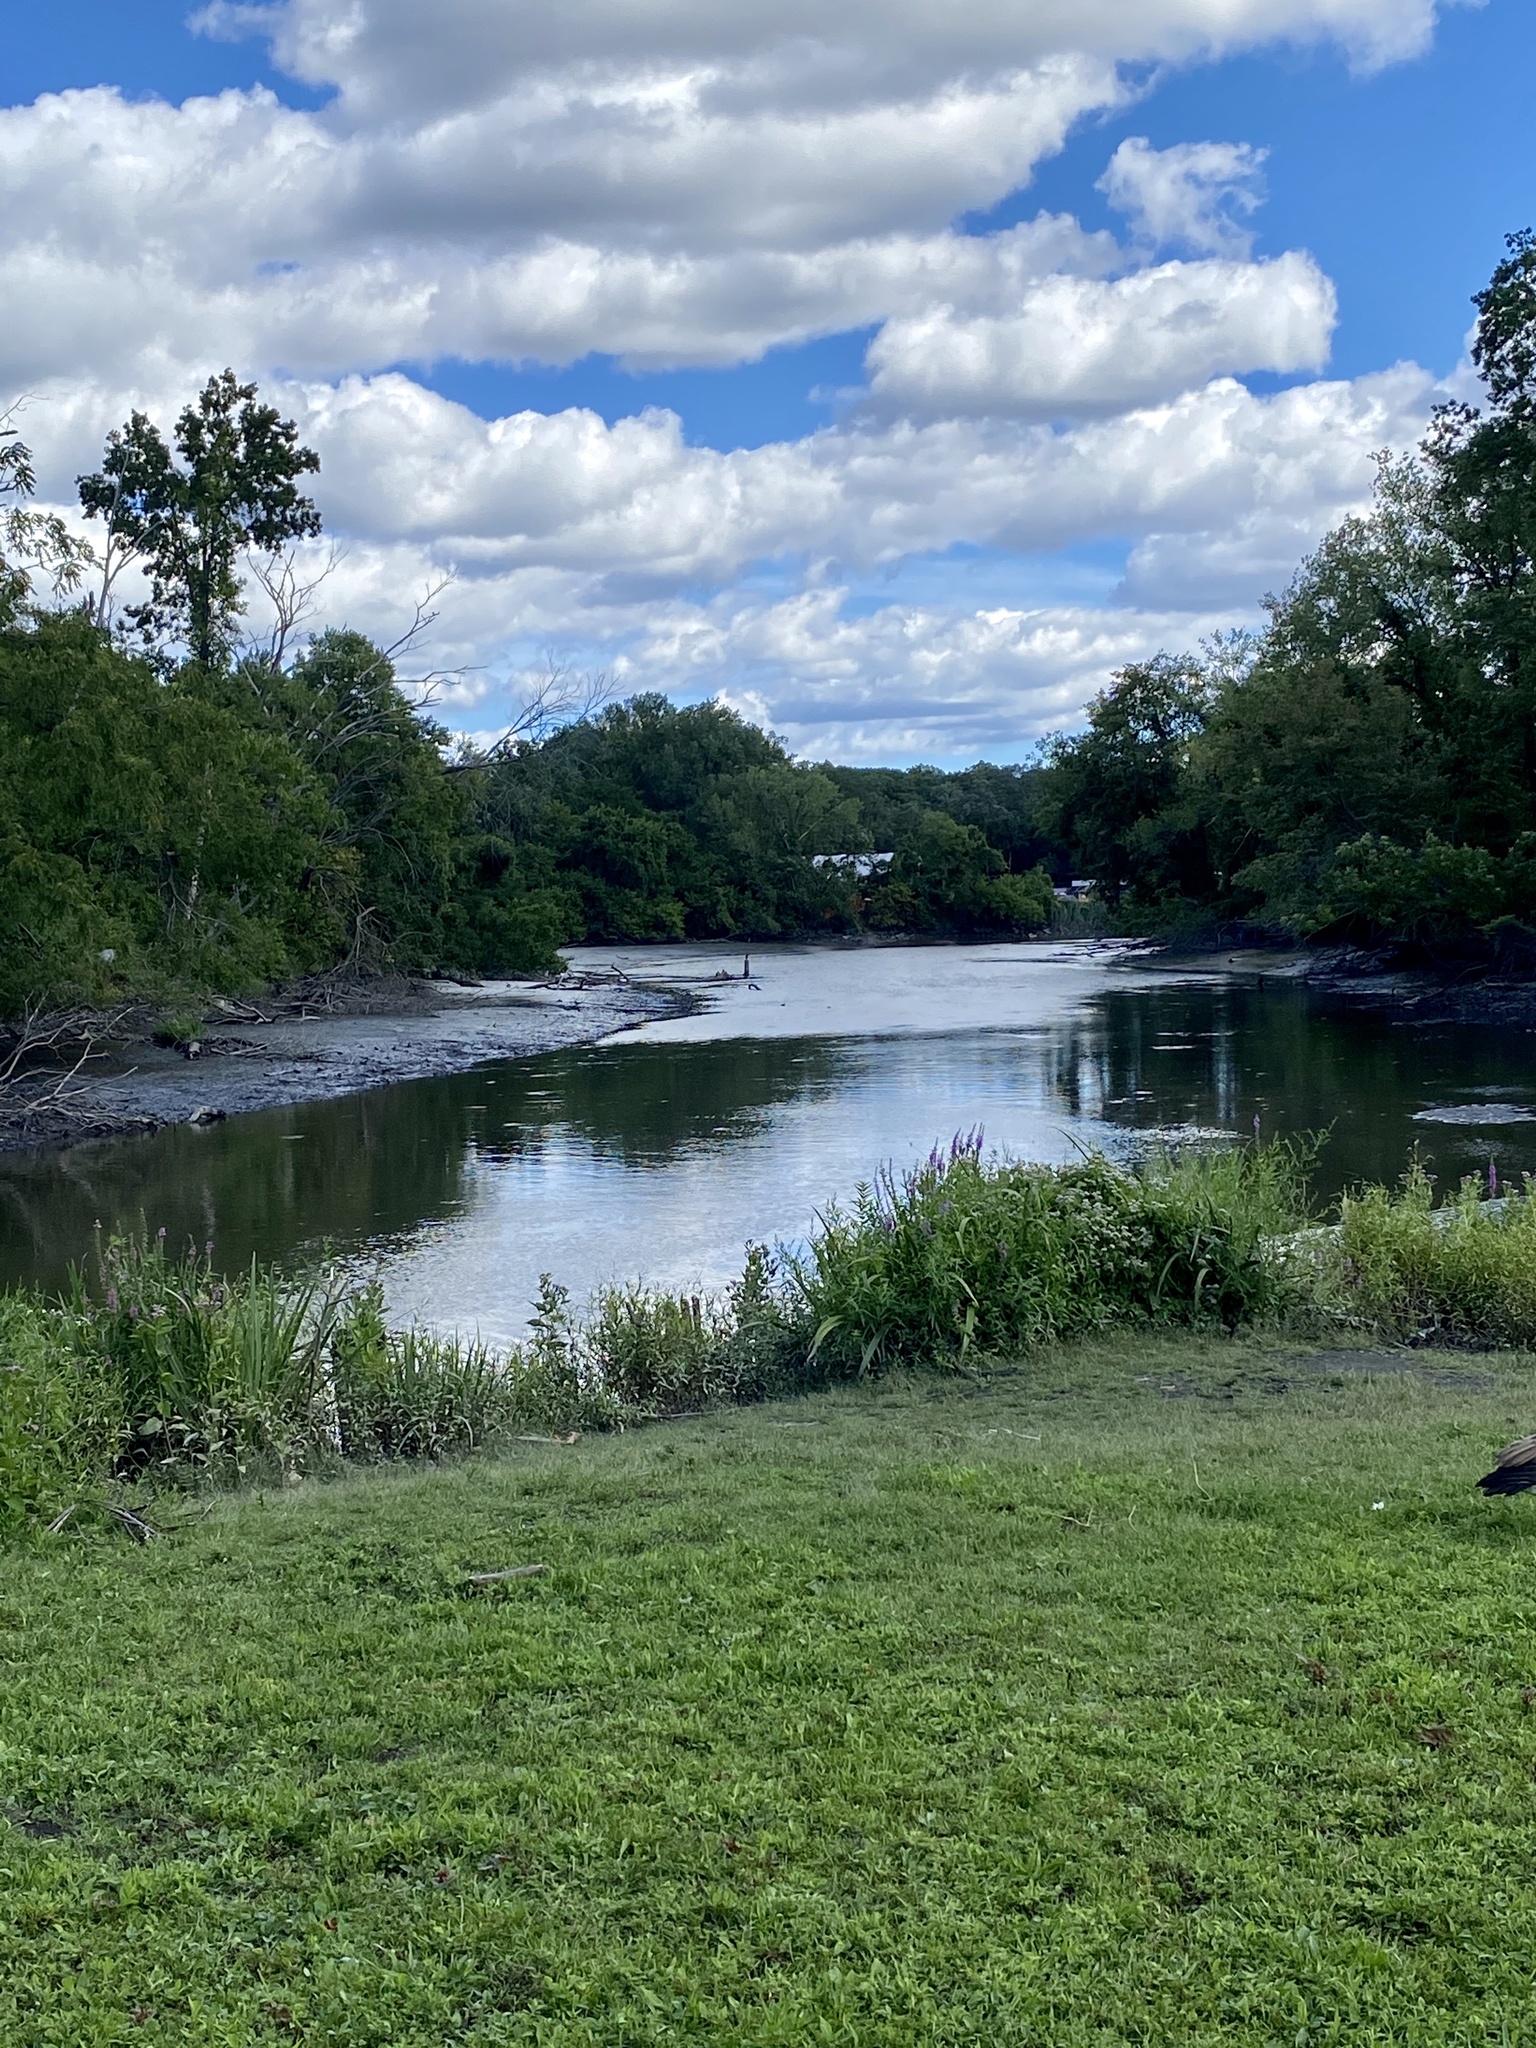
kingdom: Animalia
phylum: Chordata
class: Aves
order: Coraciiformes
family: Alcedinidae
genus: Megaceryle
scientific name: Megaceryle alcyon
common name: Belted kingfisher
